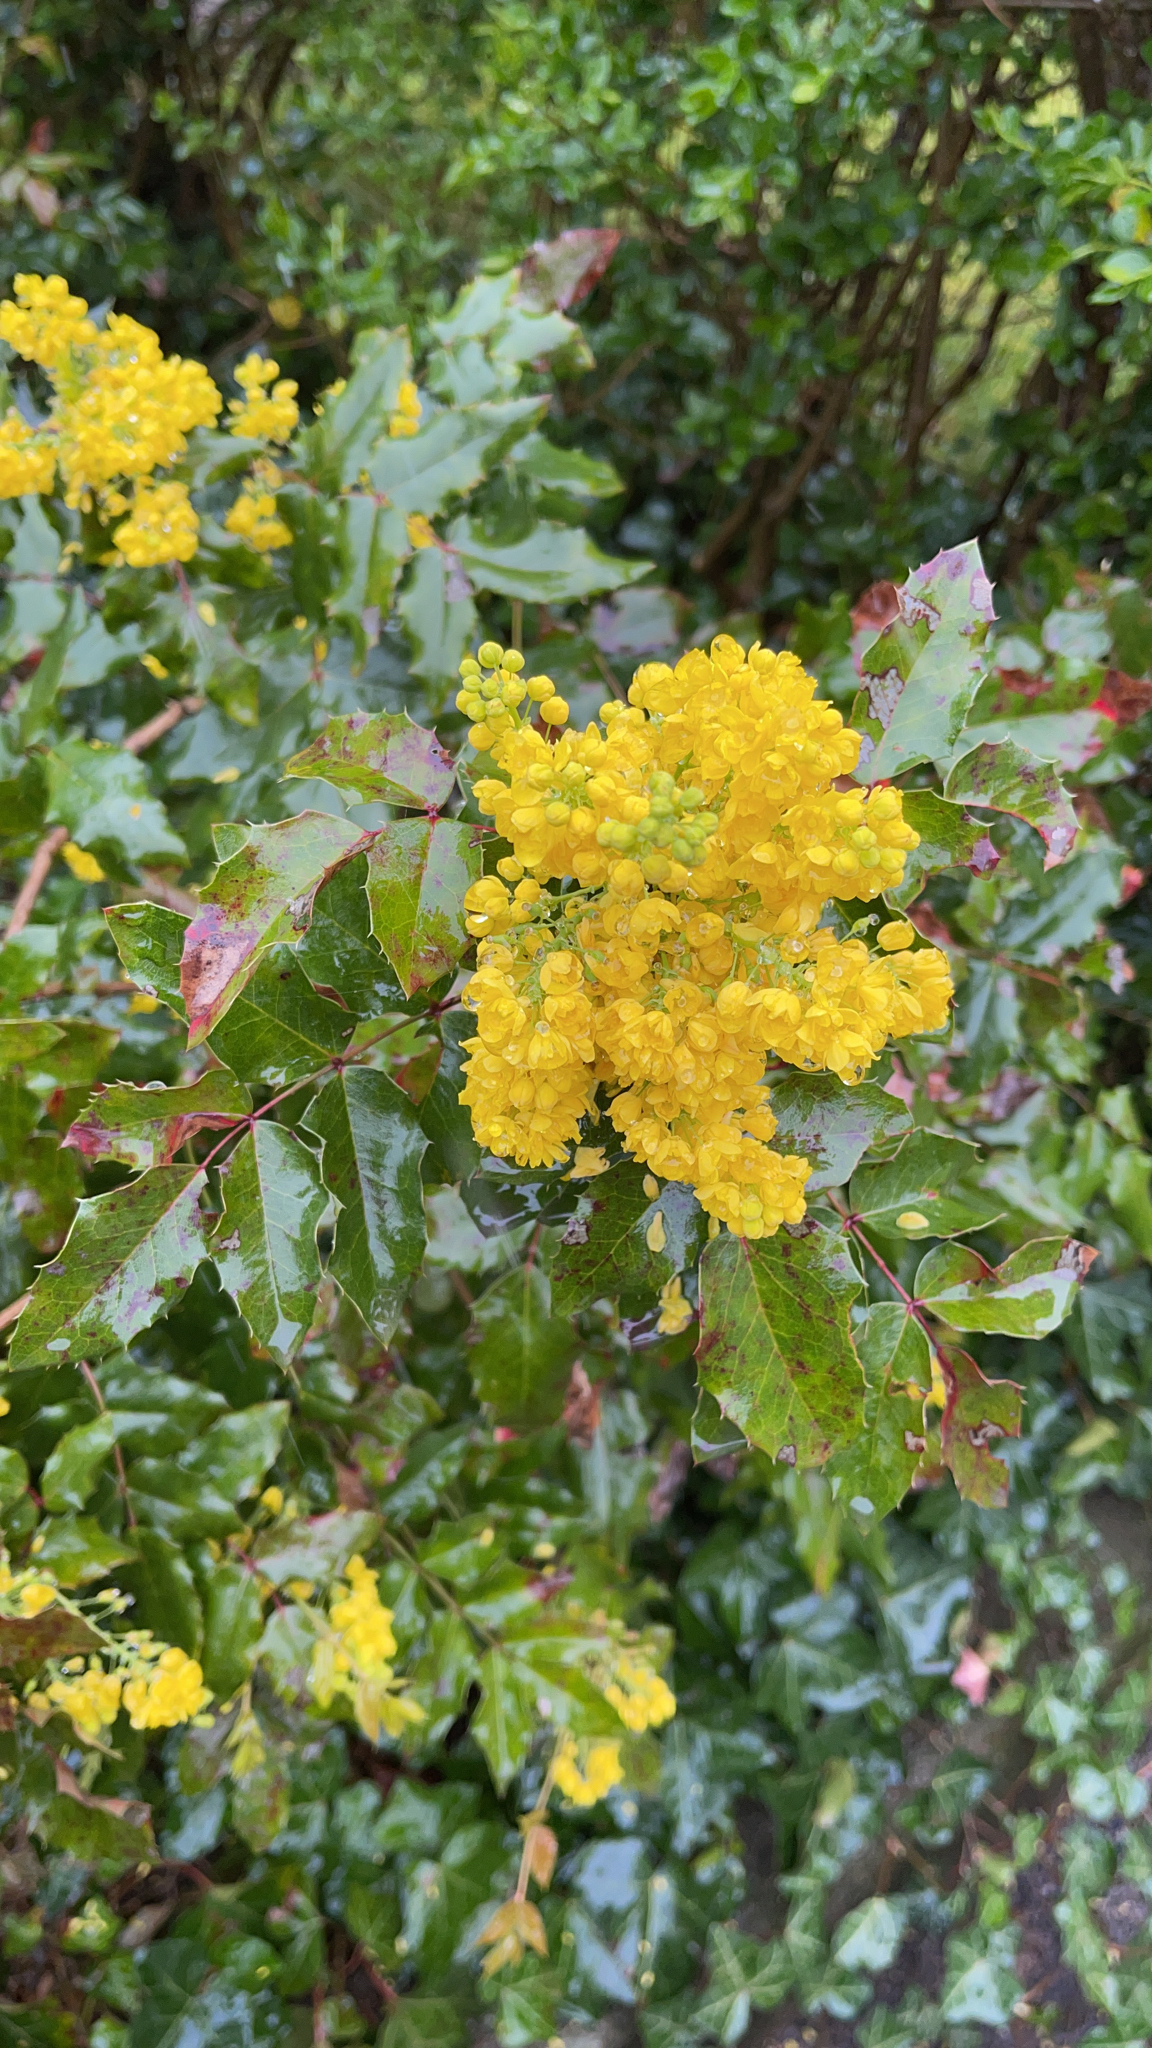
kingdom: Plantae
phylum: Tracheophyta
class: Magnoliopsida
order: Ranunculales
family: Berberidaceae
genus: Mahonia
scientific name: Mahonia aquifolium
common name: Oregon-grape
